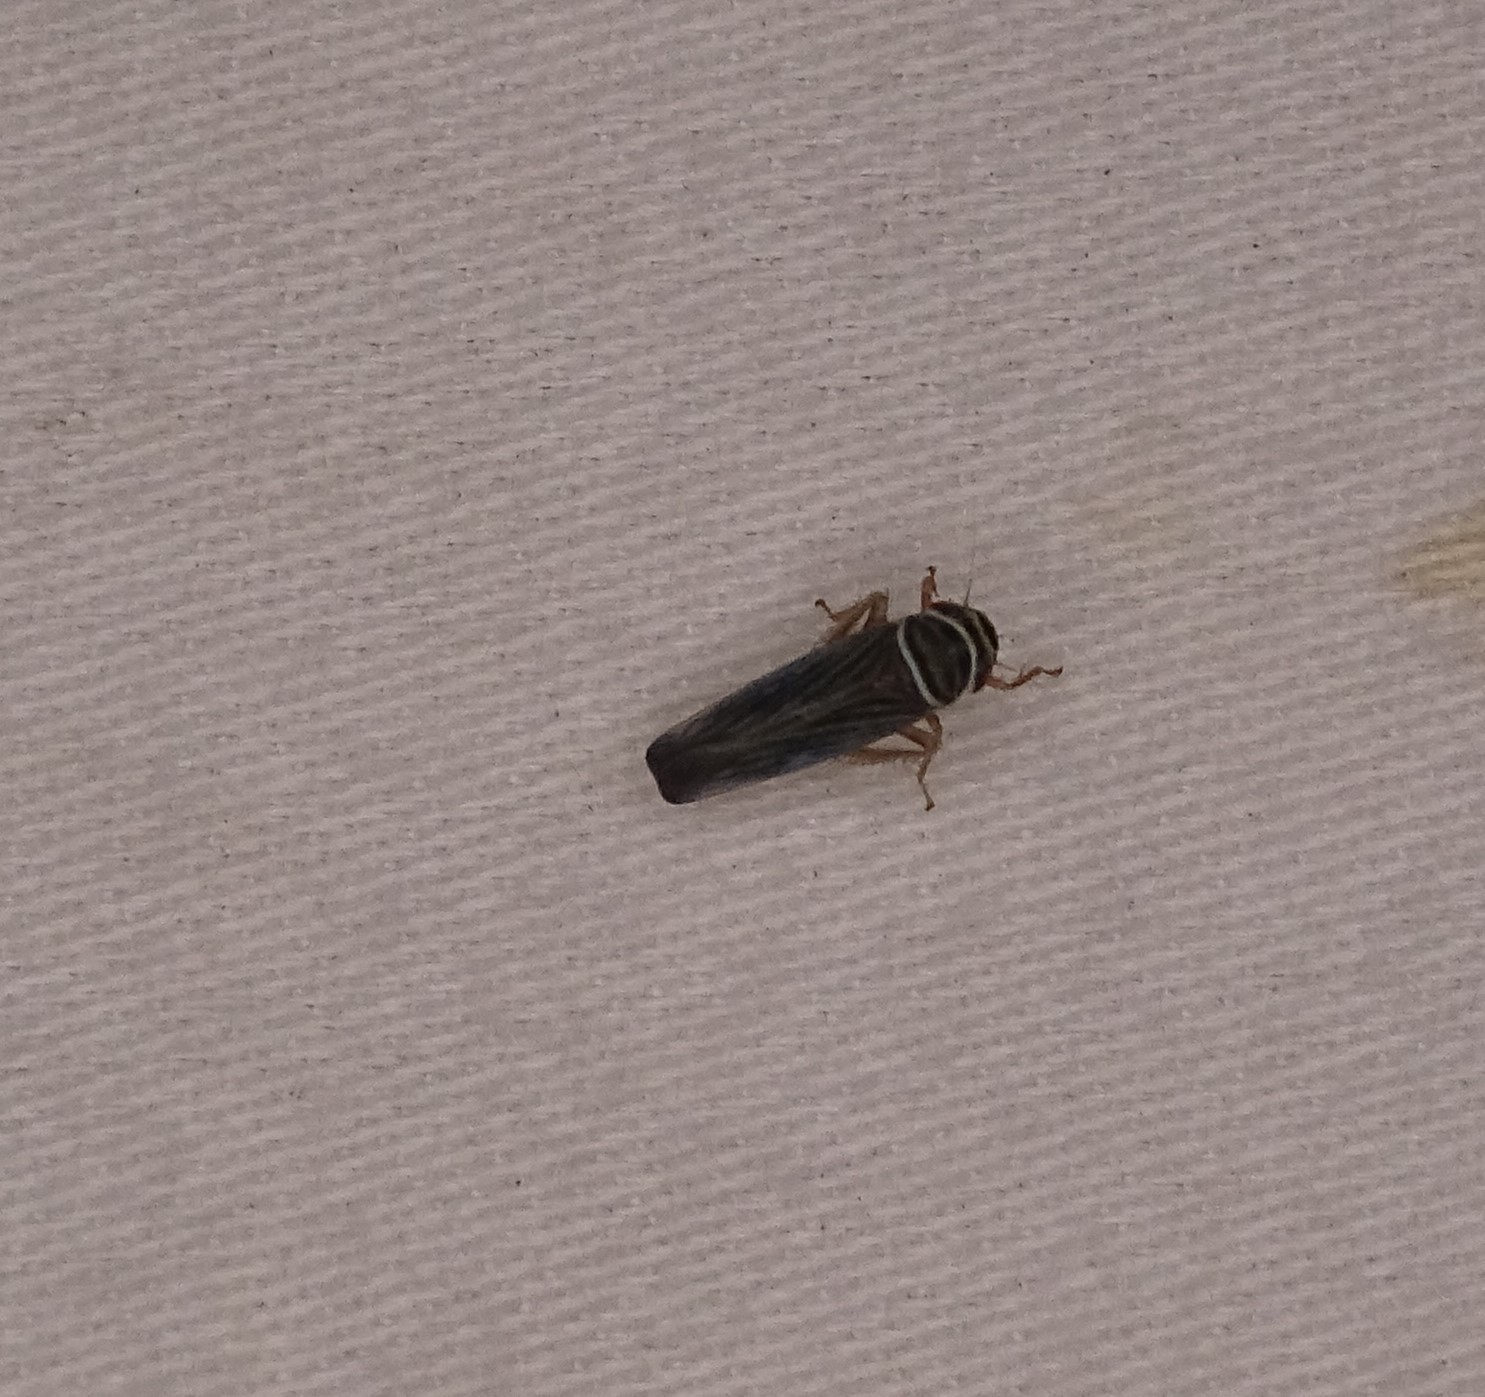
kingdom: Animalia
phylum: Arthropoda
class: Insecta
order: Hemiptera
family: Cicadellidae
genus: Tylozygus
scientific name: Tylozygus bifidus
